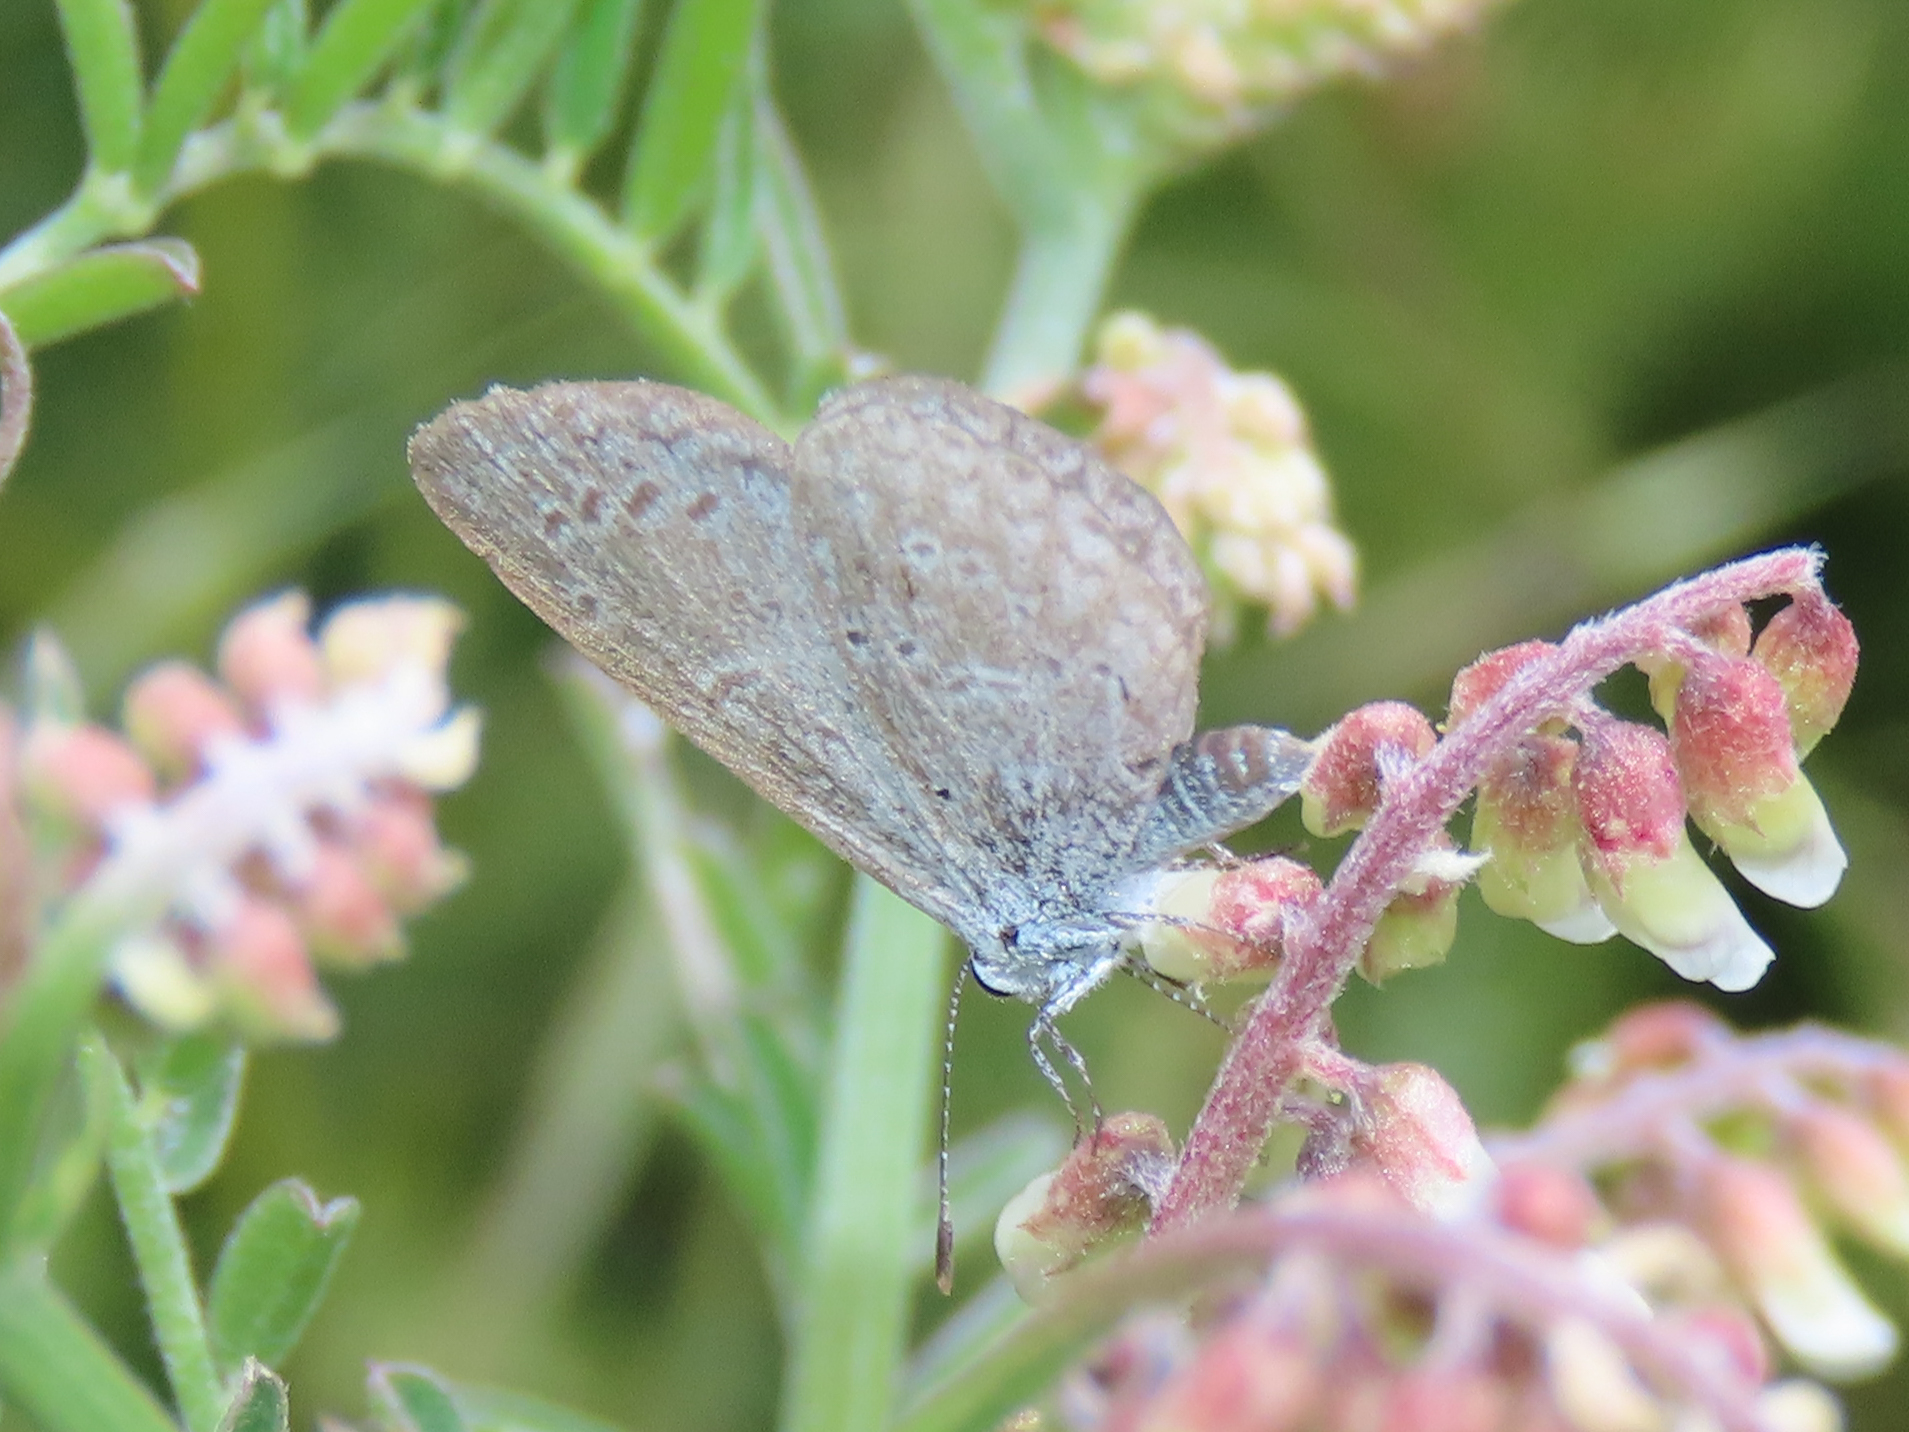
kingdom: Animalia
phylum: Arthropoda
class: Insecta
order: Lepidoptera
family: Lycaenidae
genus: Celastrina
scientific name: Celastrina ladon
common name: Spring azure
